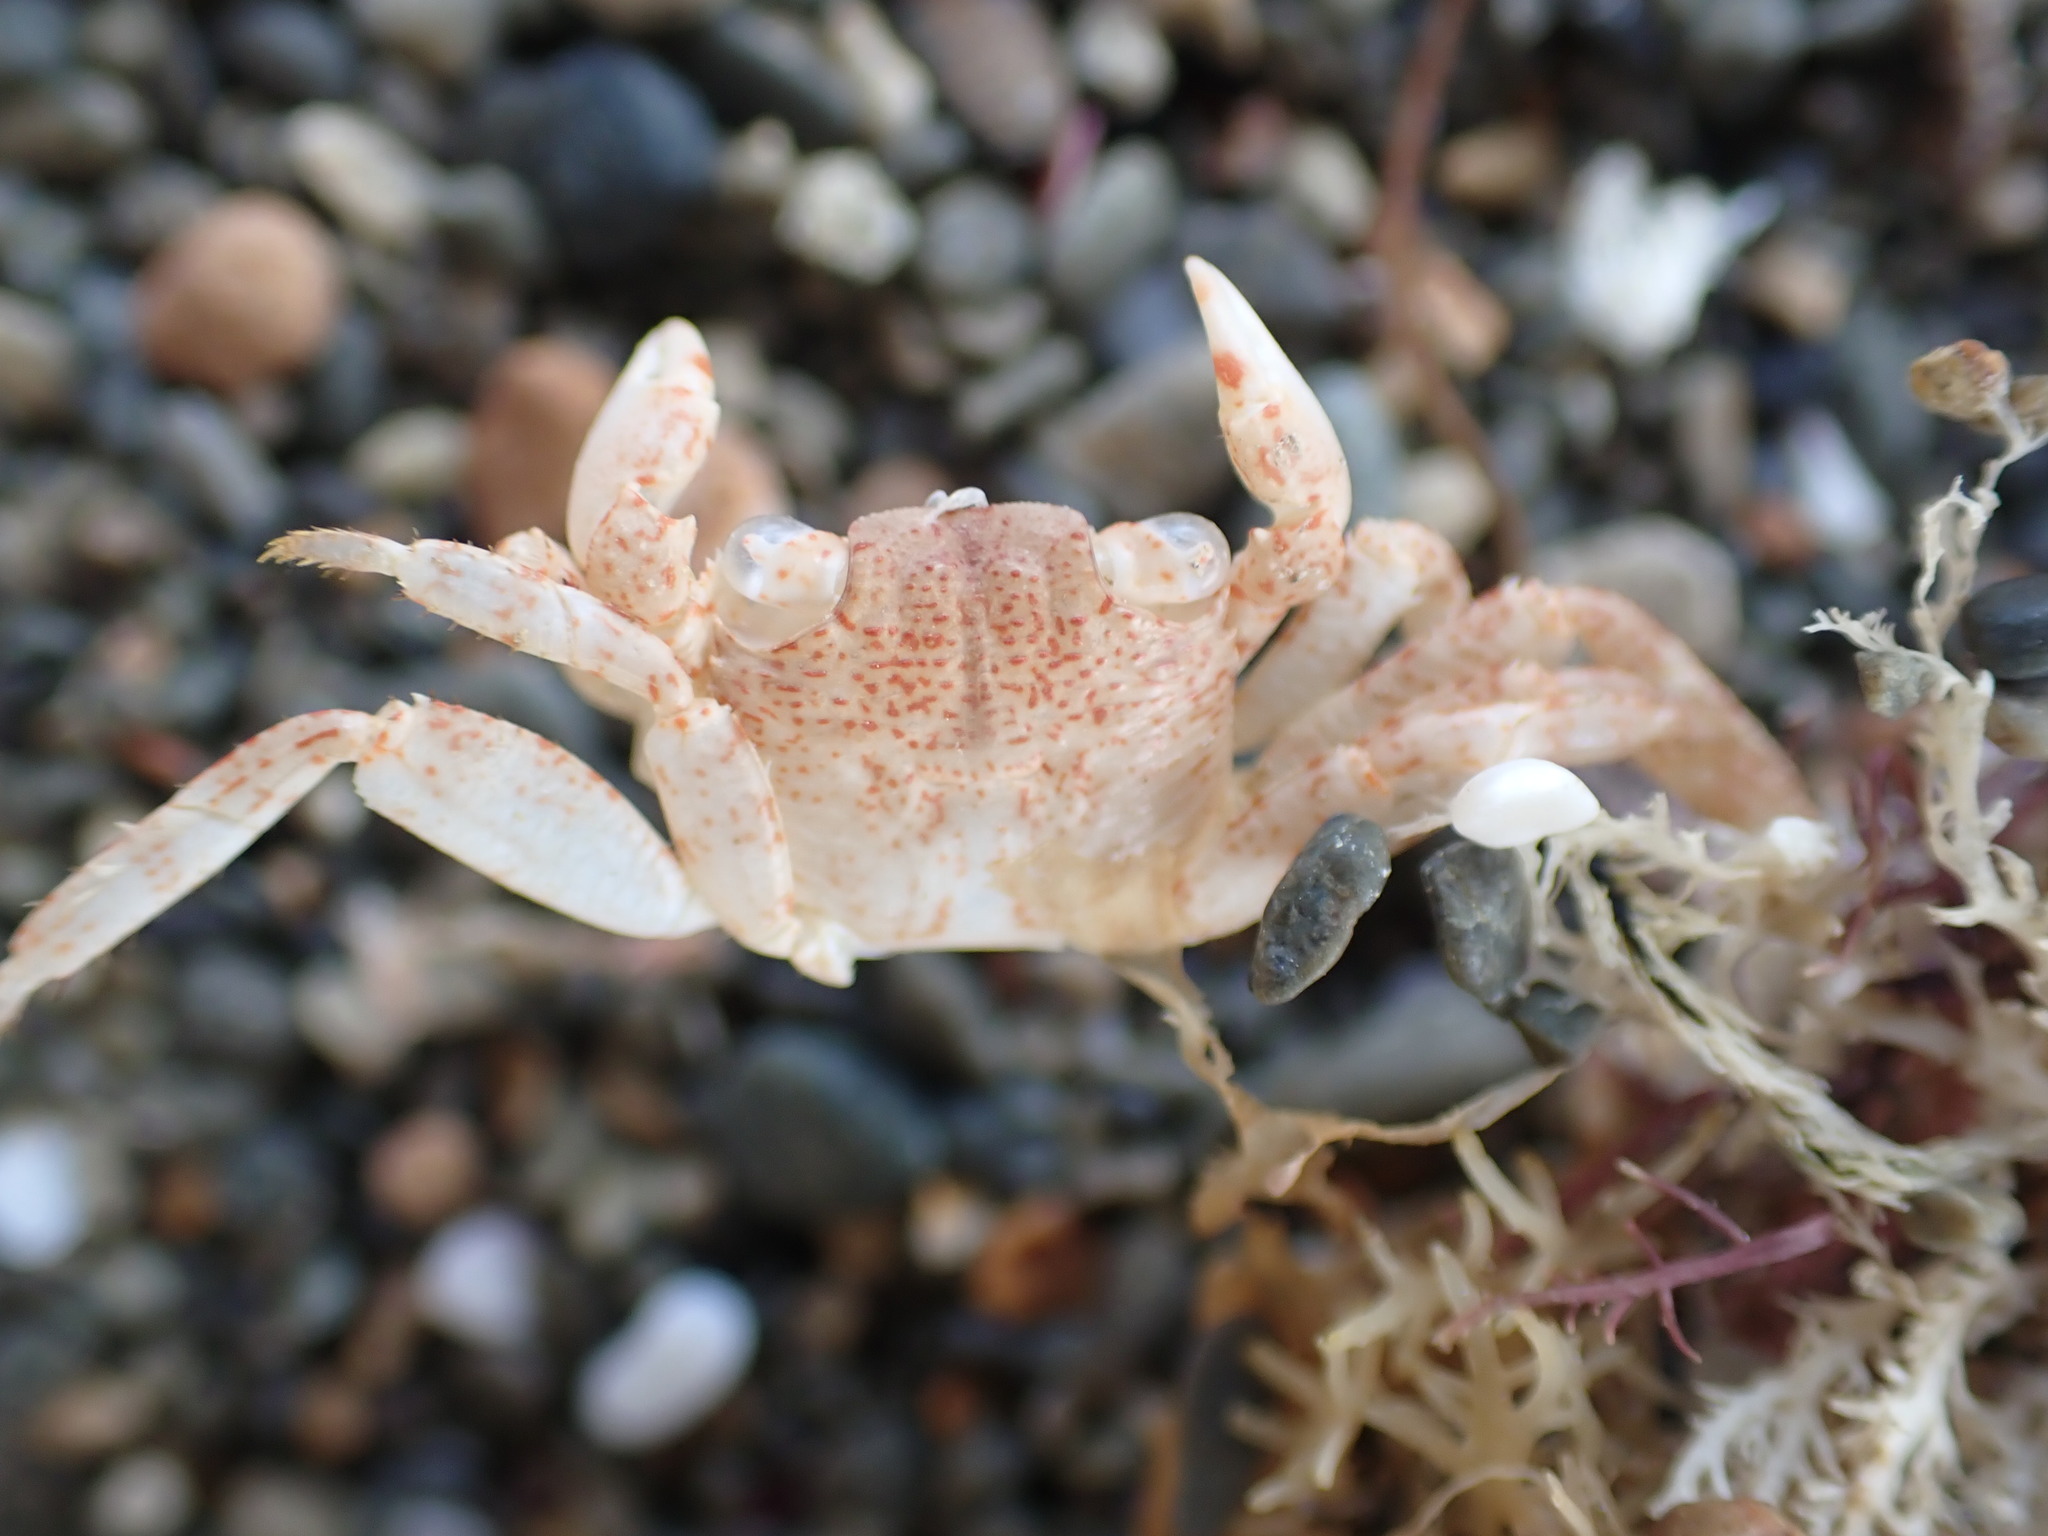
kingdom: Animalia
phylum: Arthropoda
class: Malacostraca
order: Decapoda
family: Grapsidae
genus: Leptograpsus
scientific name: Leptograpsus variegatus
